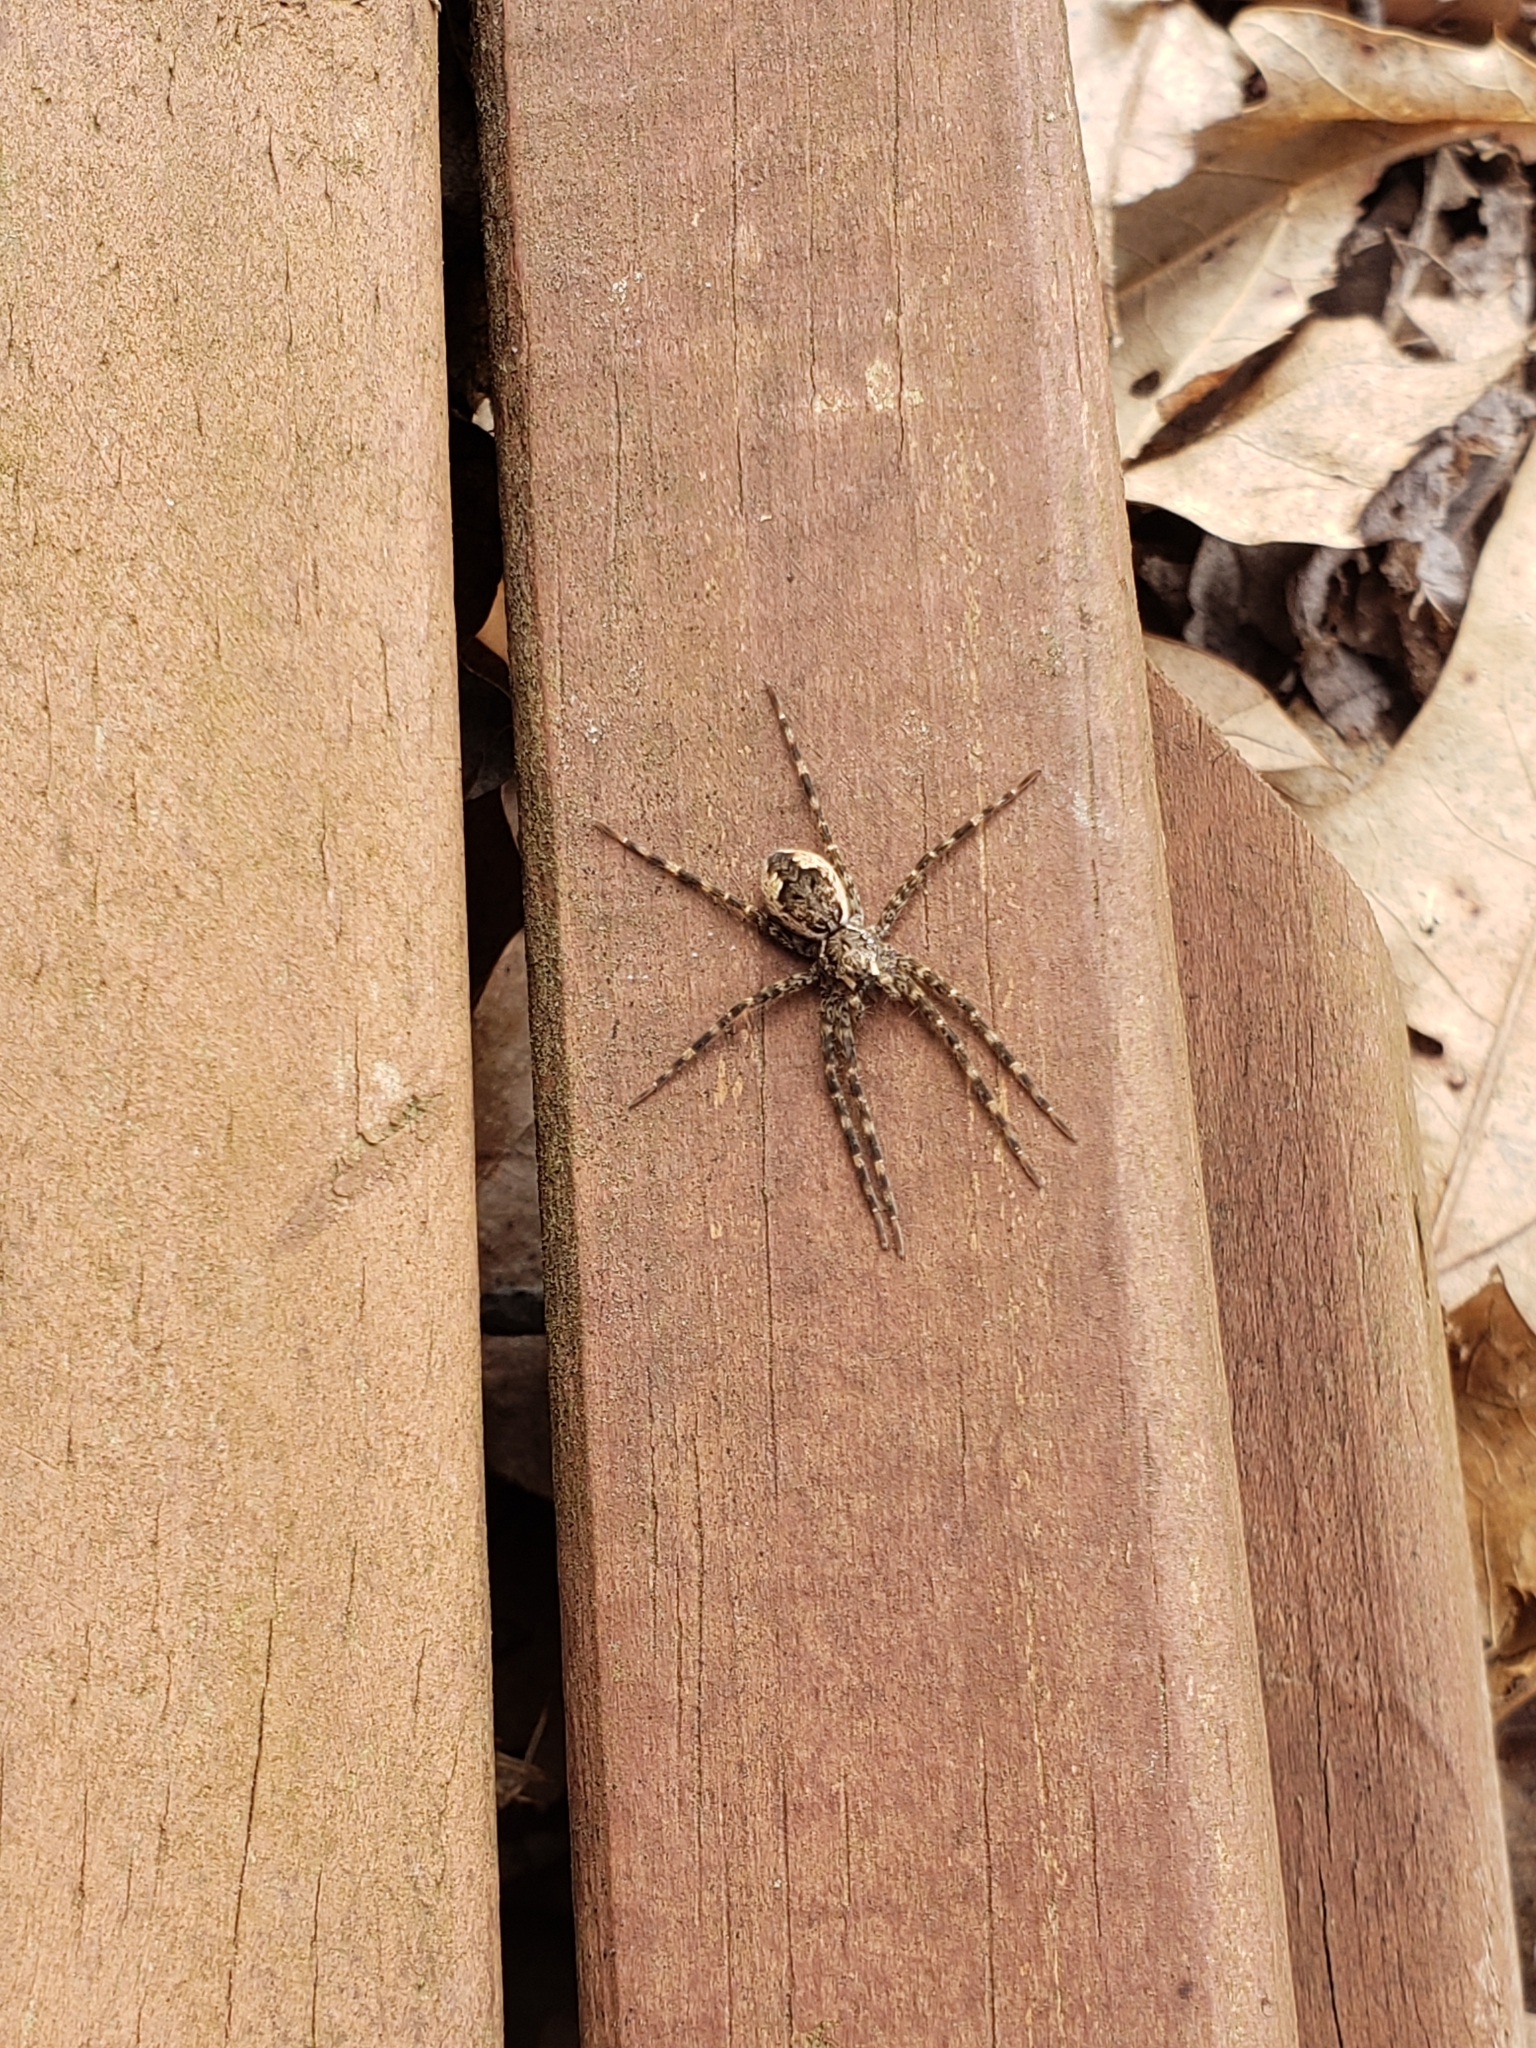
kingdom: Animalia
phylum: Arthropoda
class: Arachnida
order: Araneae
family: Pisauridae
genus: Dolomedes
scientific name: Dolomedes tenebrosus
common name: Dark fishing spider
